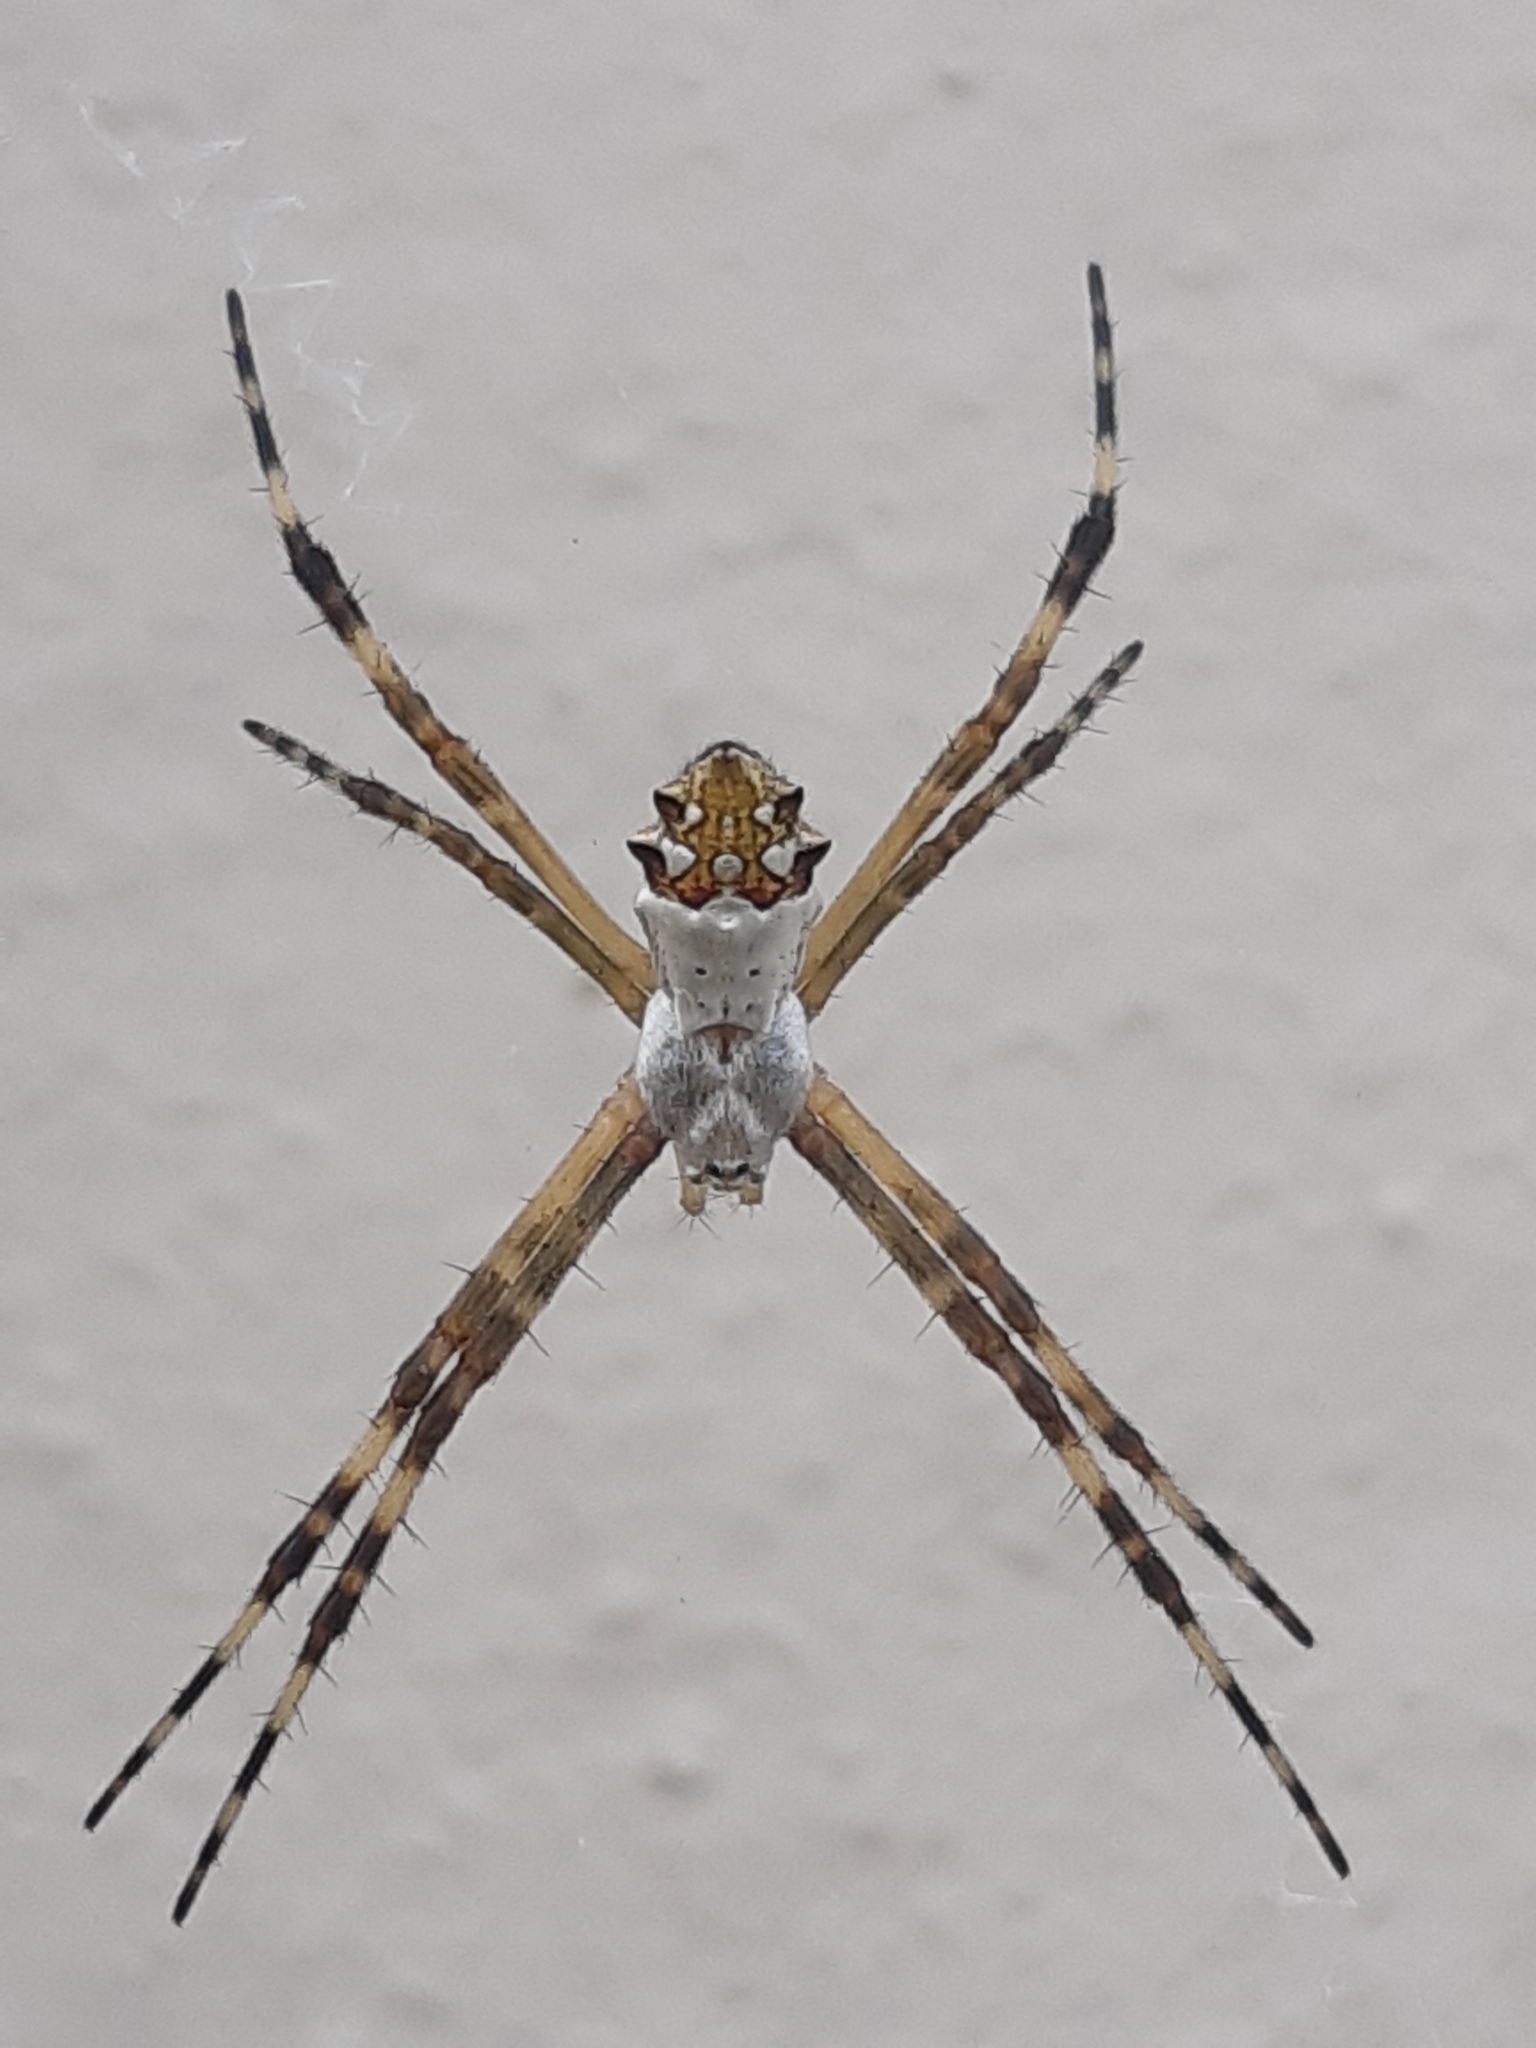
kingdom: Animalia
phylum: Arthropoda
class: Arachnida
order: Araneae
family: Araneidae
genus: Argiope
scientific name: Argiope argentata
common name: Orb weavers
